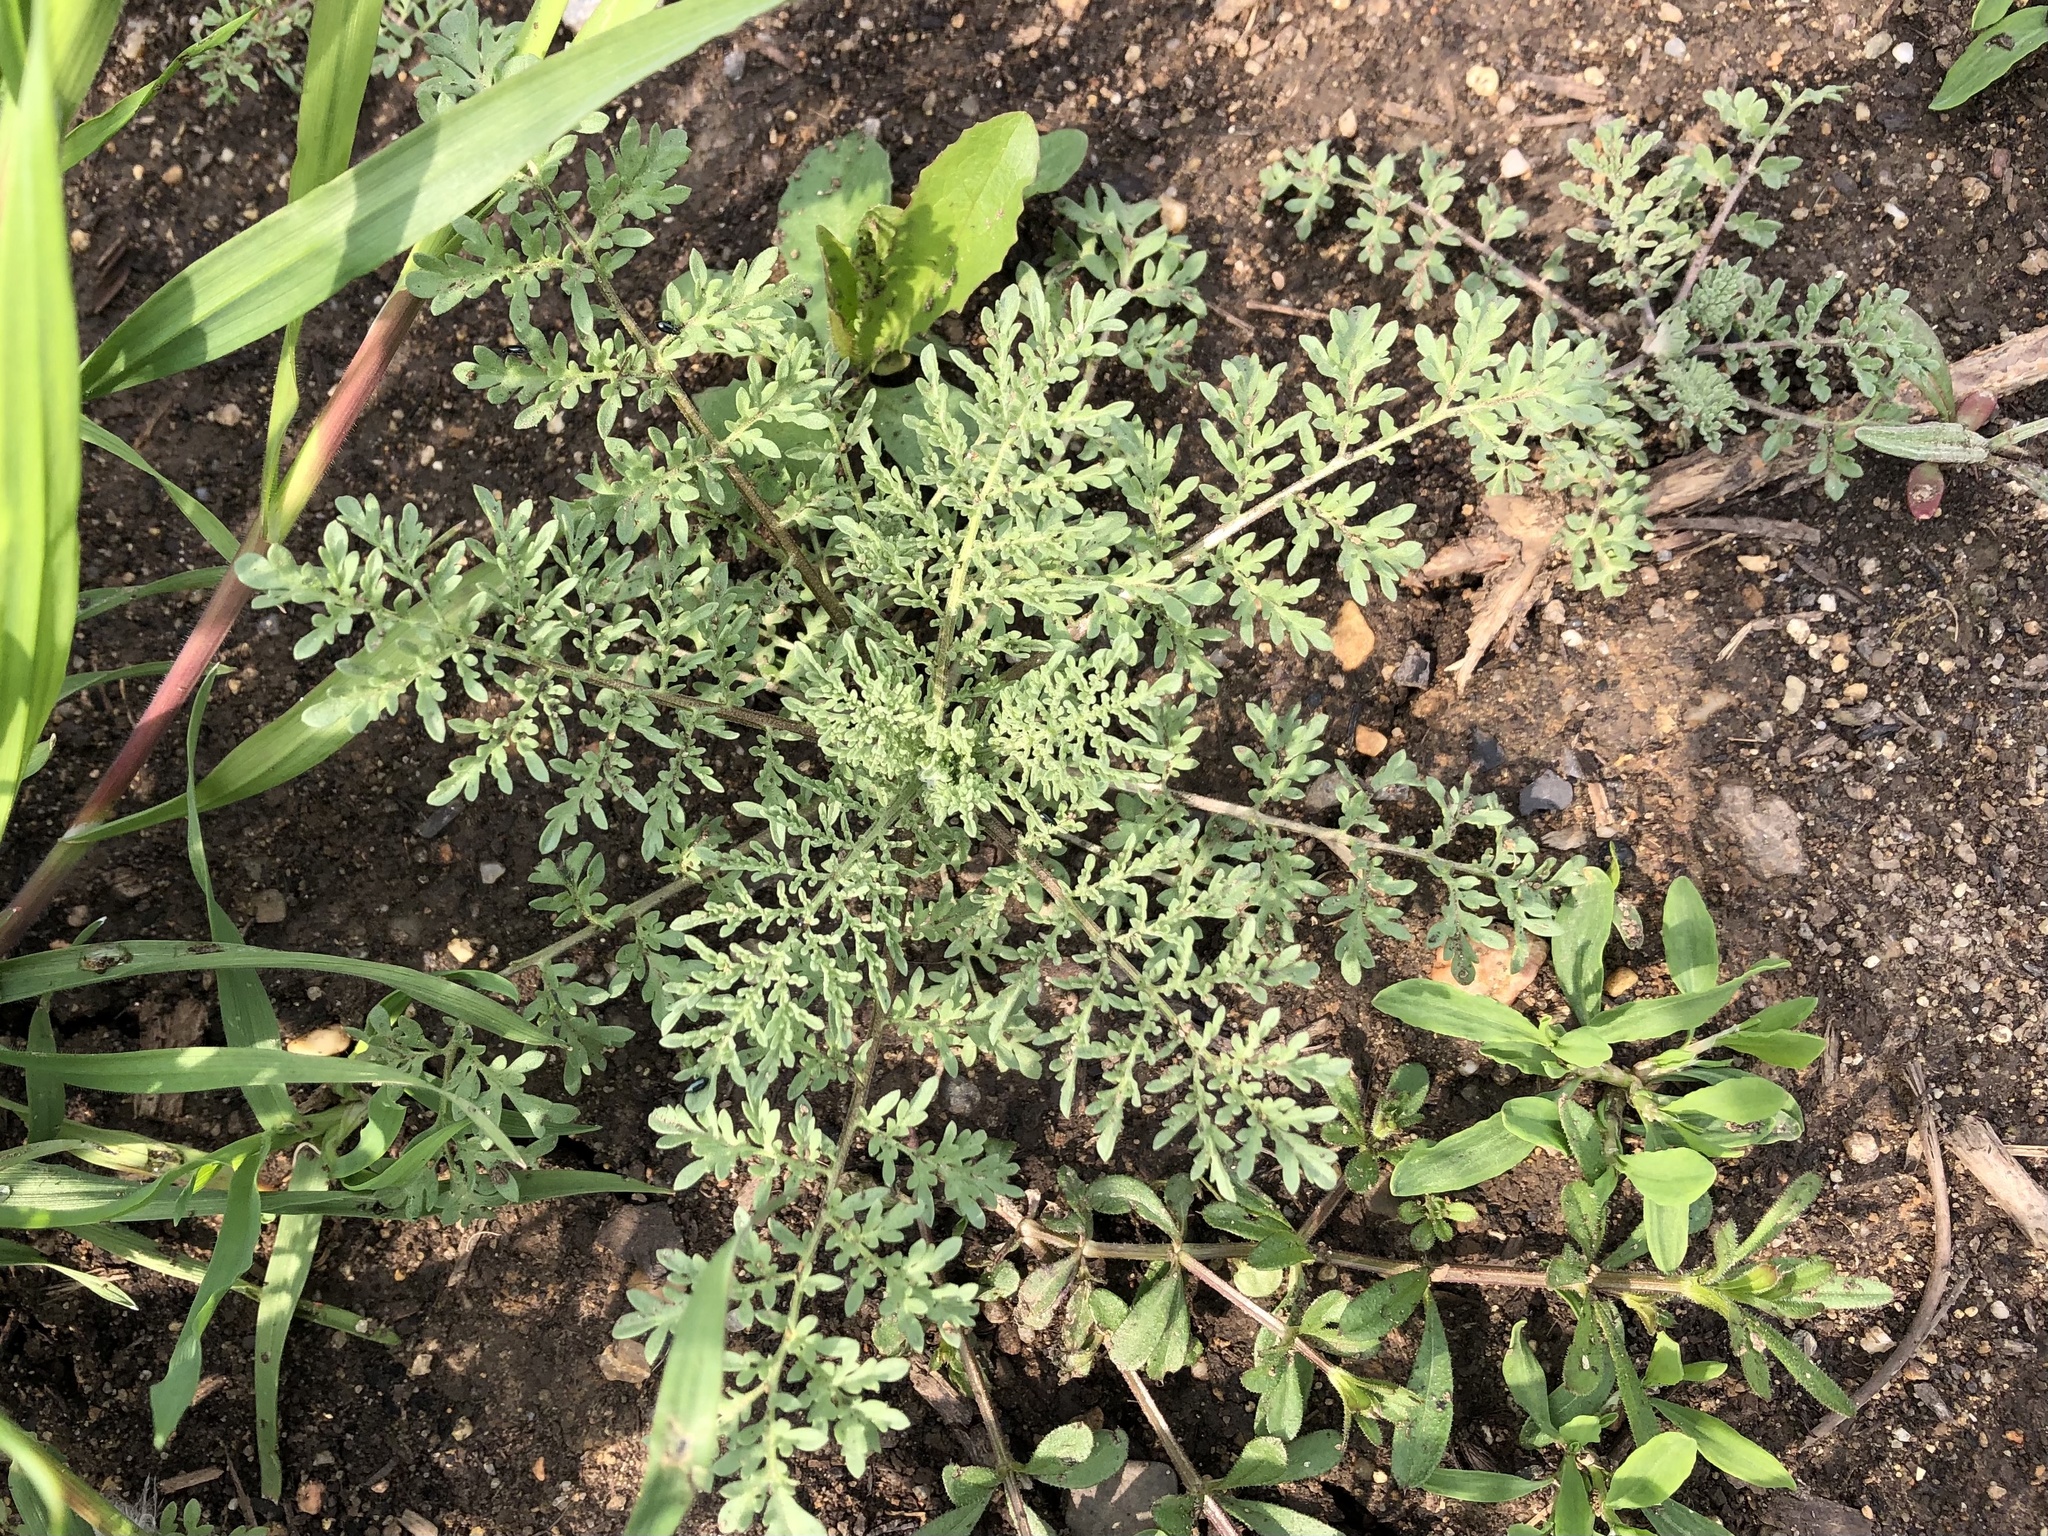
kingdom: Plantae
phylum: Tracheophyta
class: Magnoliopsida
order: Brassicales
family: Brassicaceae
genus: Descurainia
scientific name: Descurainia sophia
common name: Flixweed
